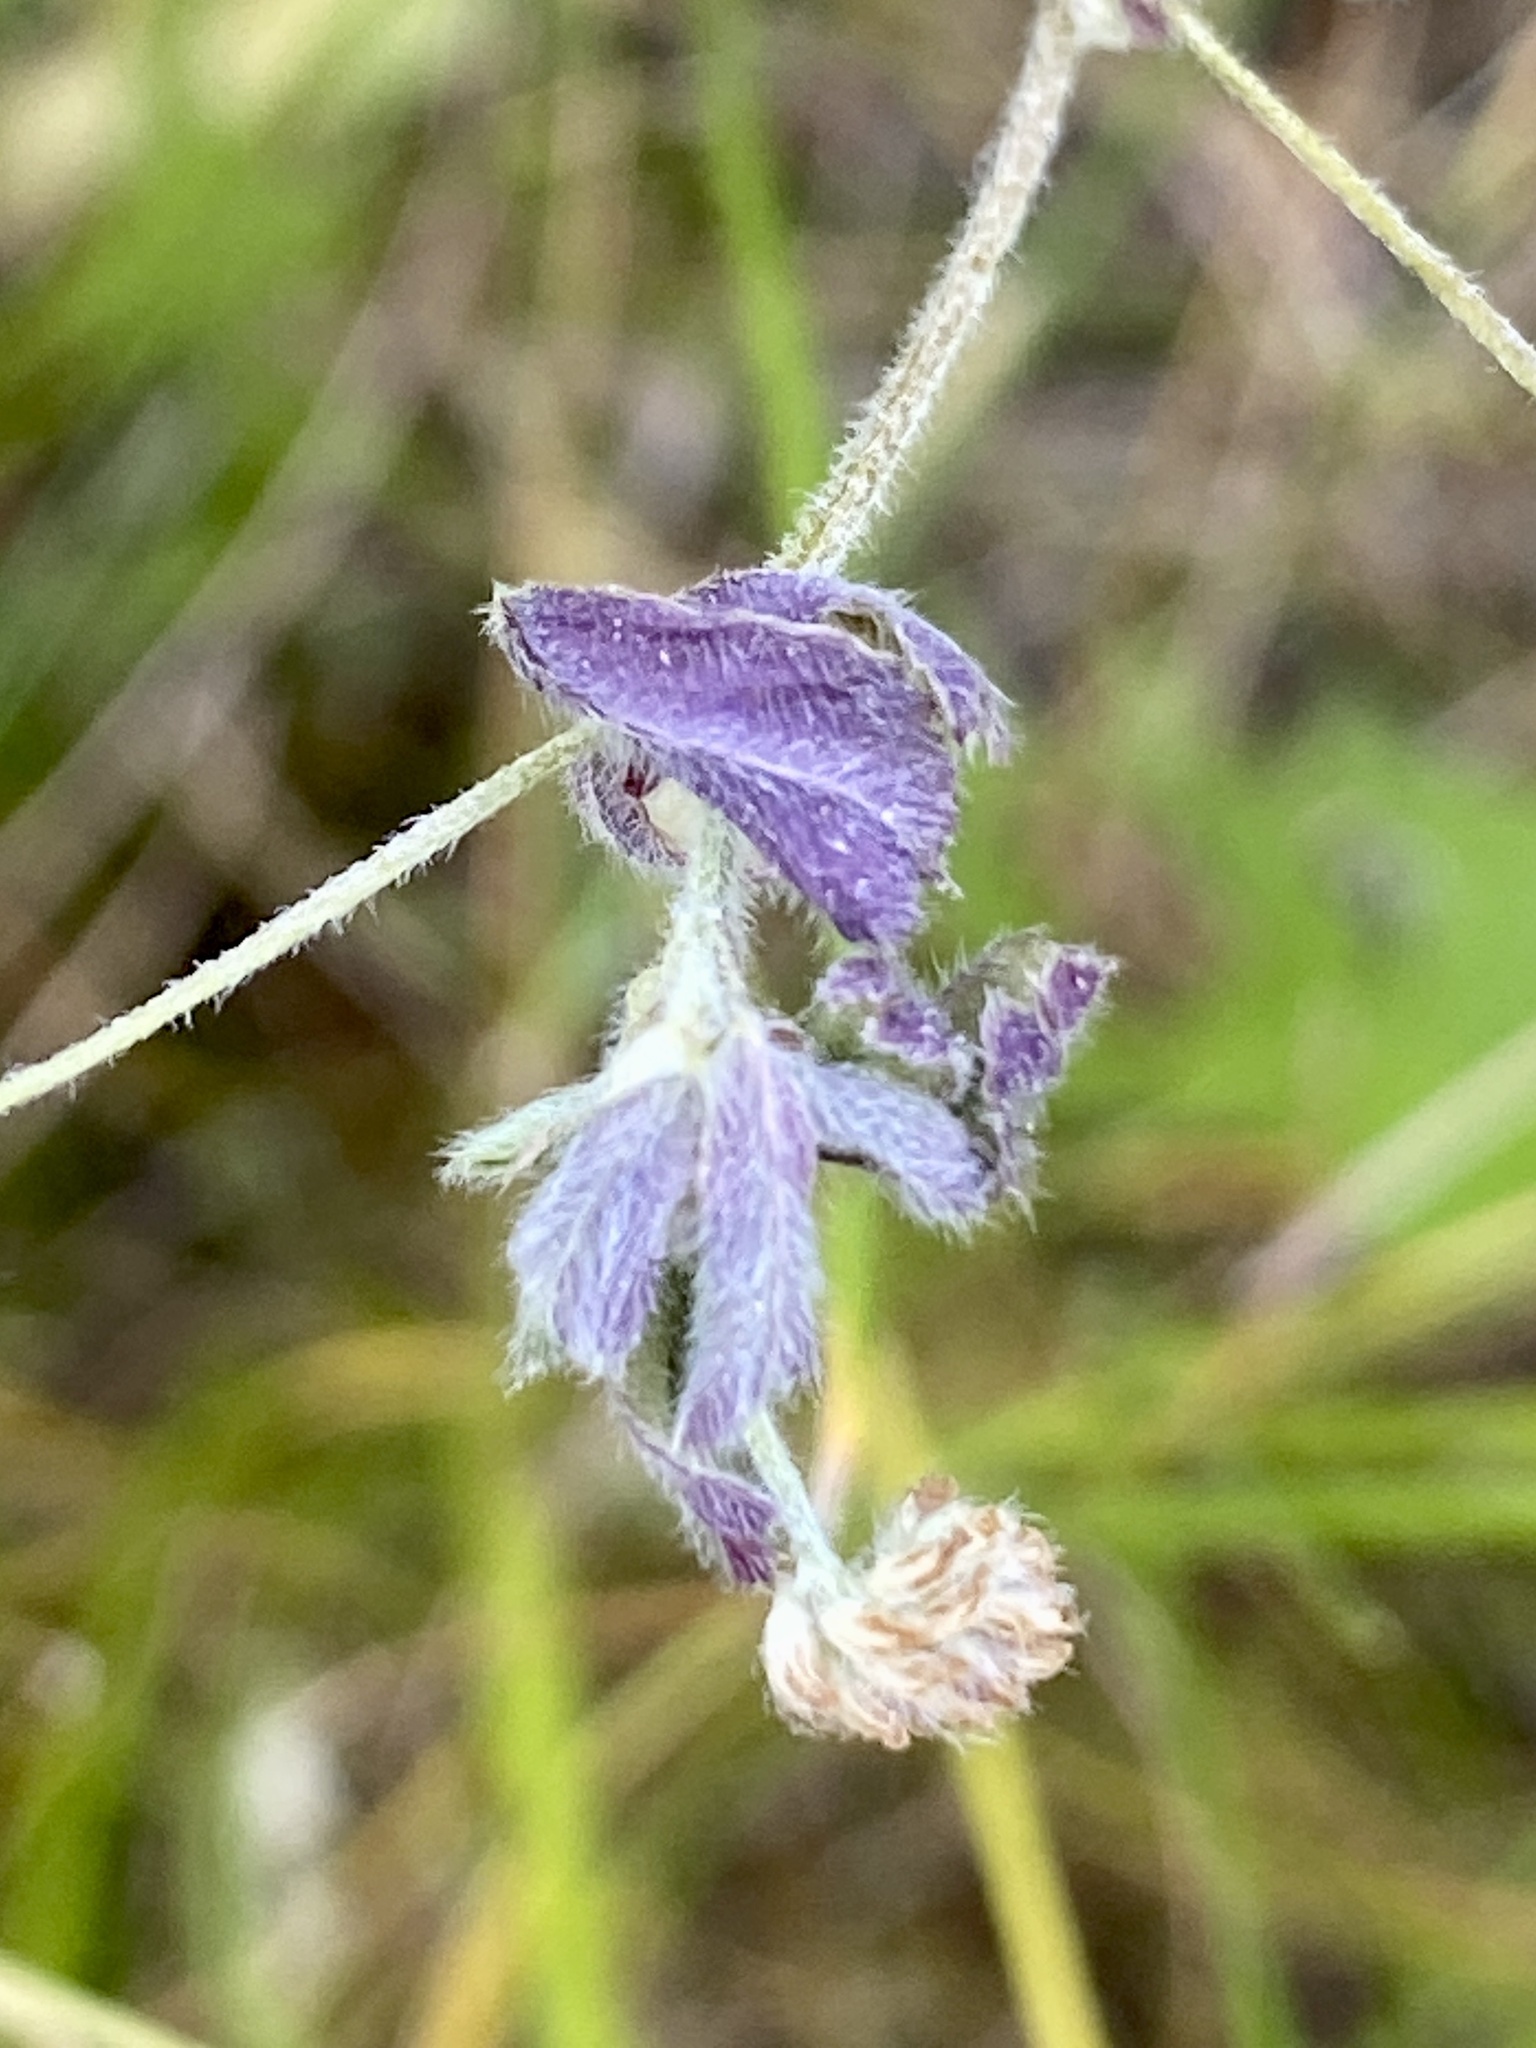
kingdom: Plantae
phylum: Tracheophyta
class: Magnoliopsida
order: Fabales
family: Fabaceae
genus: Medicago
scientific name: Medicago lupulina
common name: Black medick
